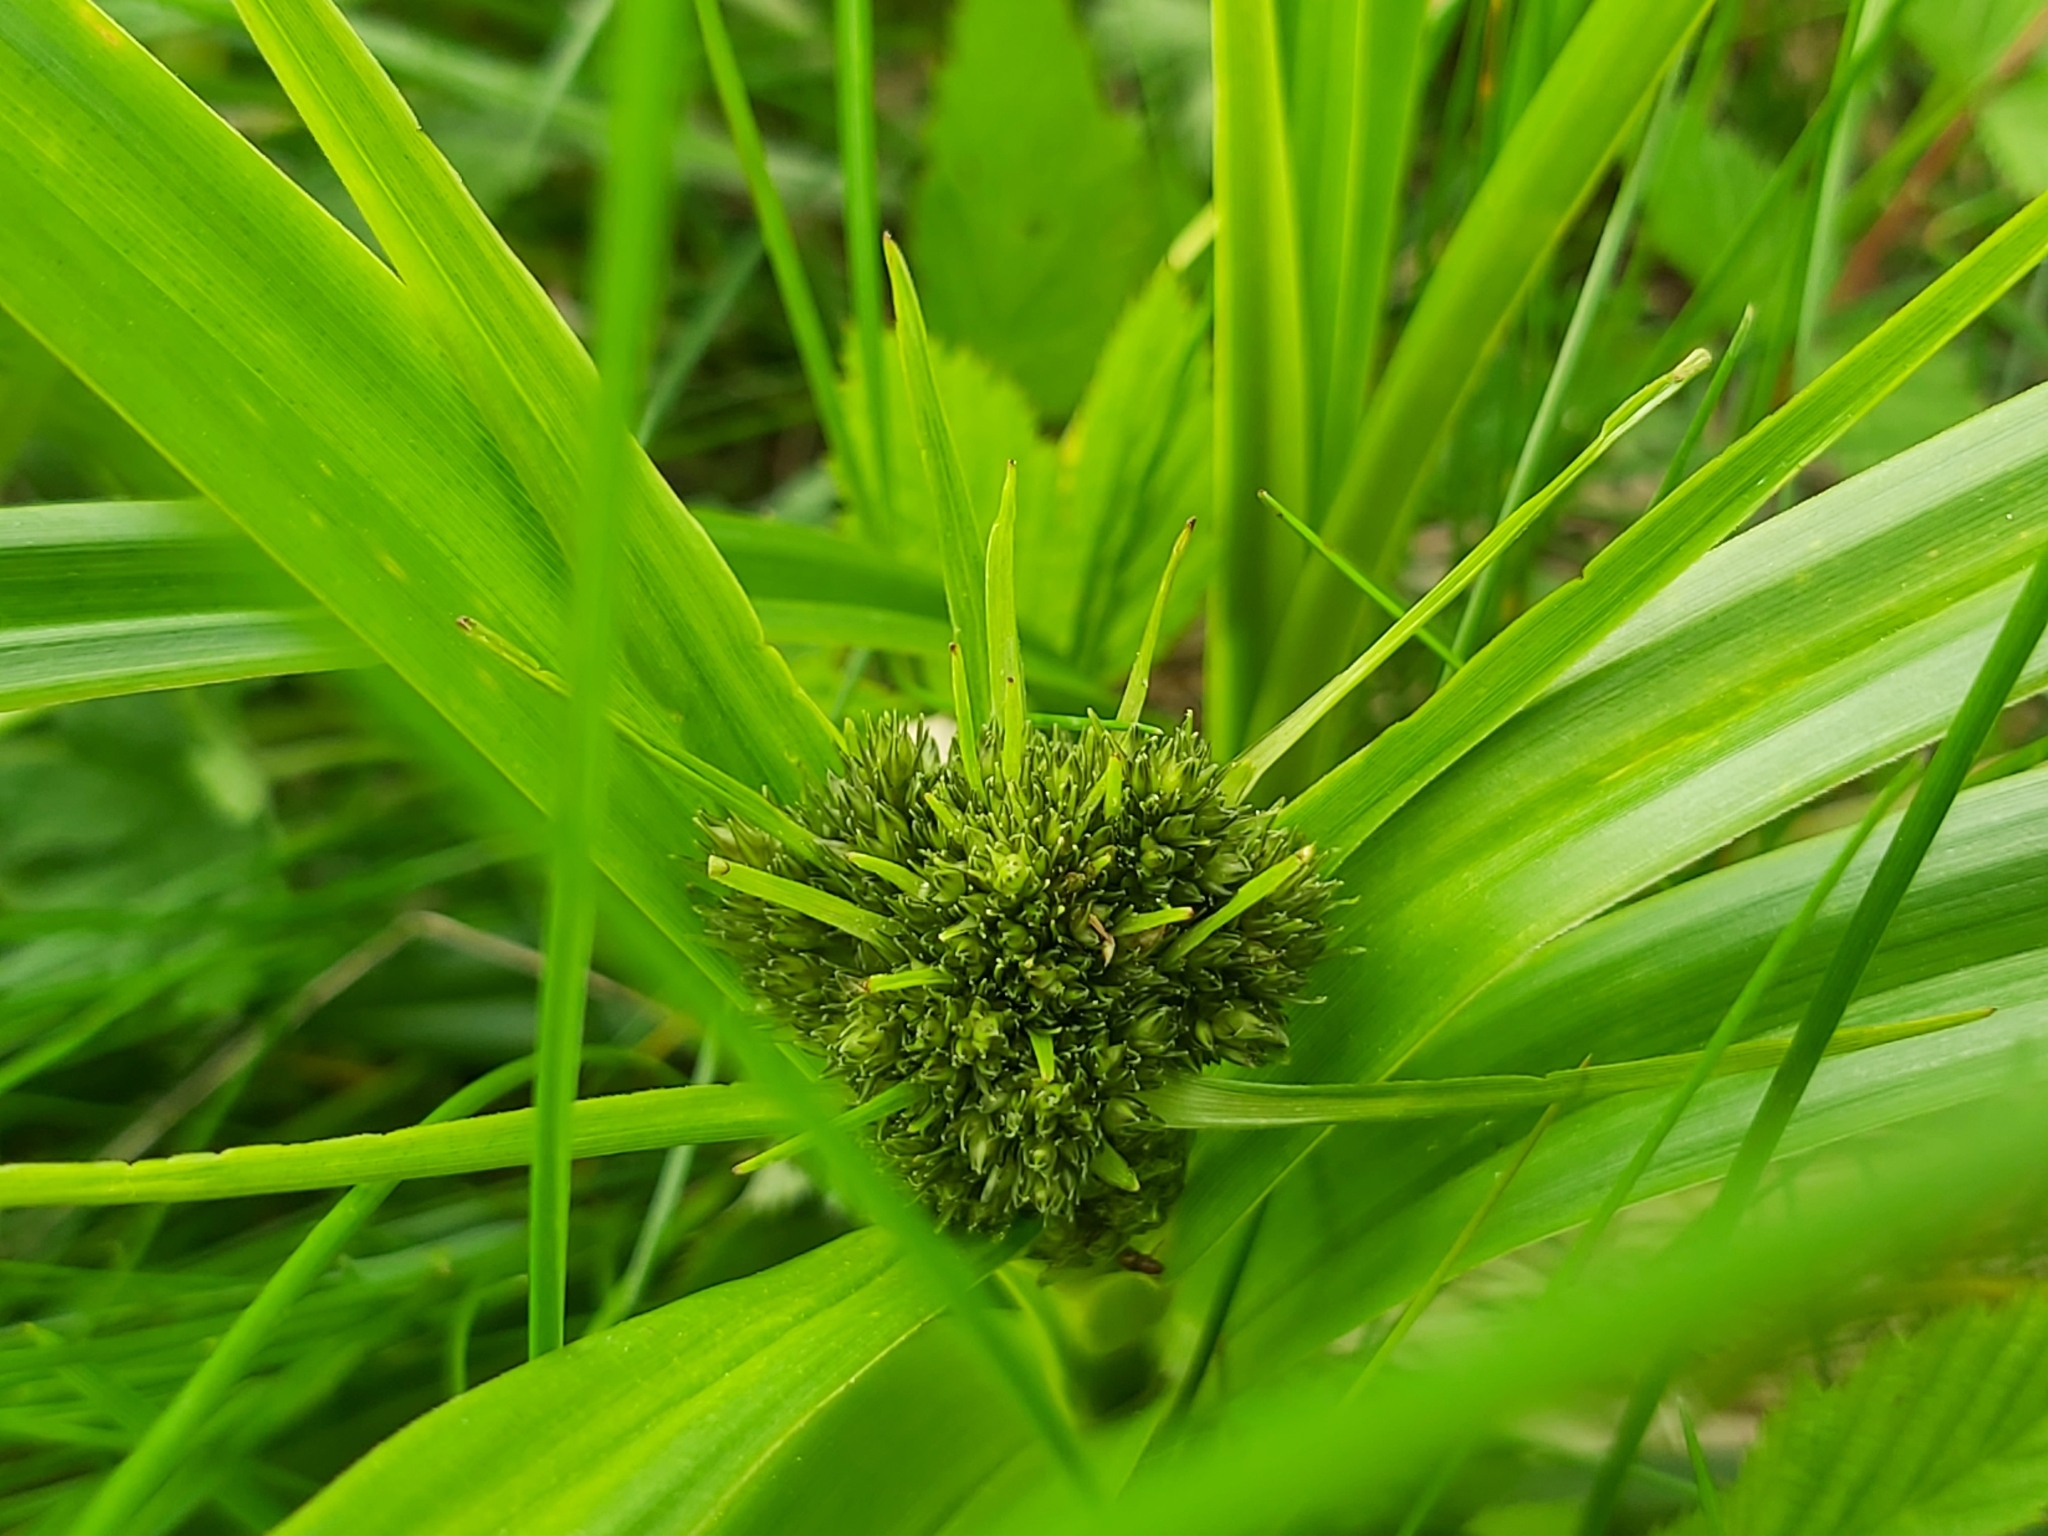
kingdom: Plantae
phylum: Tracheophyta
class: Liliopsida
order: Poales
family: Cyperaceae
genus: Scirpus
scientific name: Scirpus sylvaticus
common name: Wood club-rush
